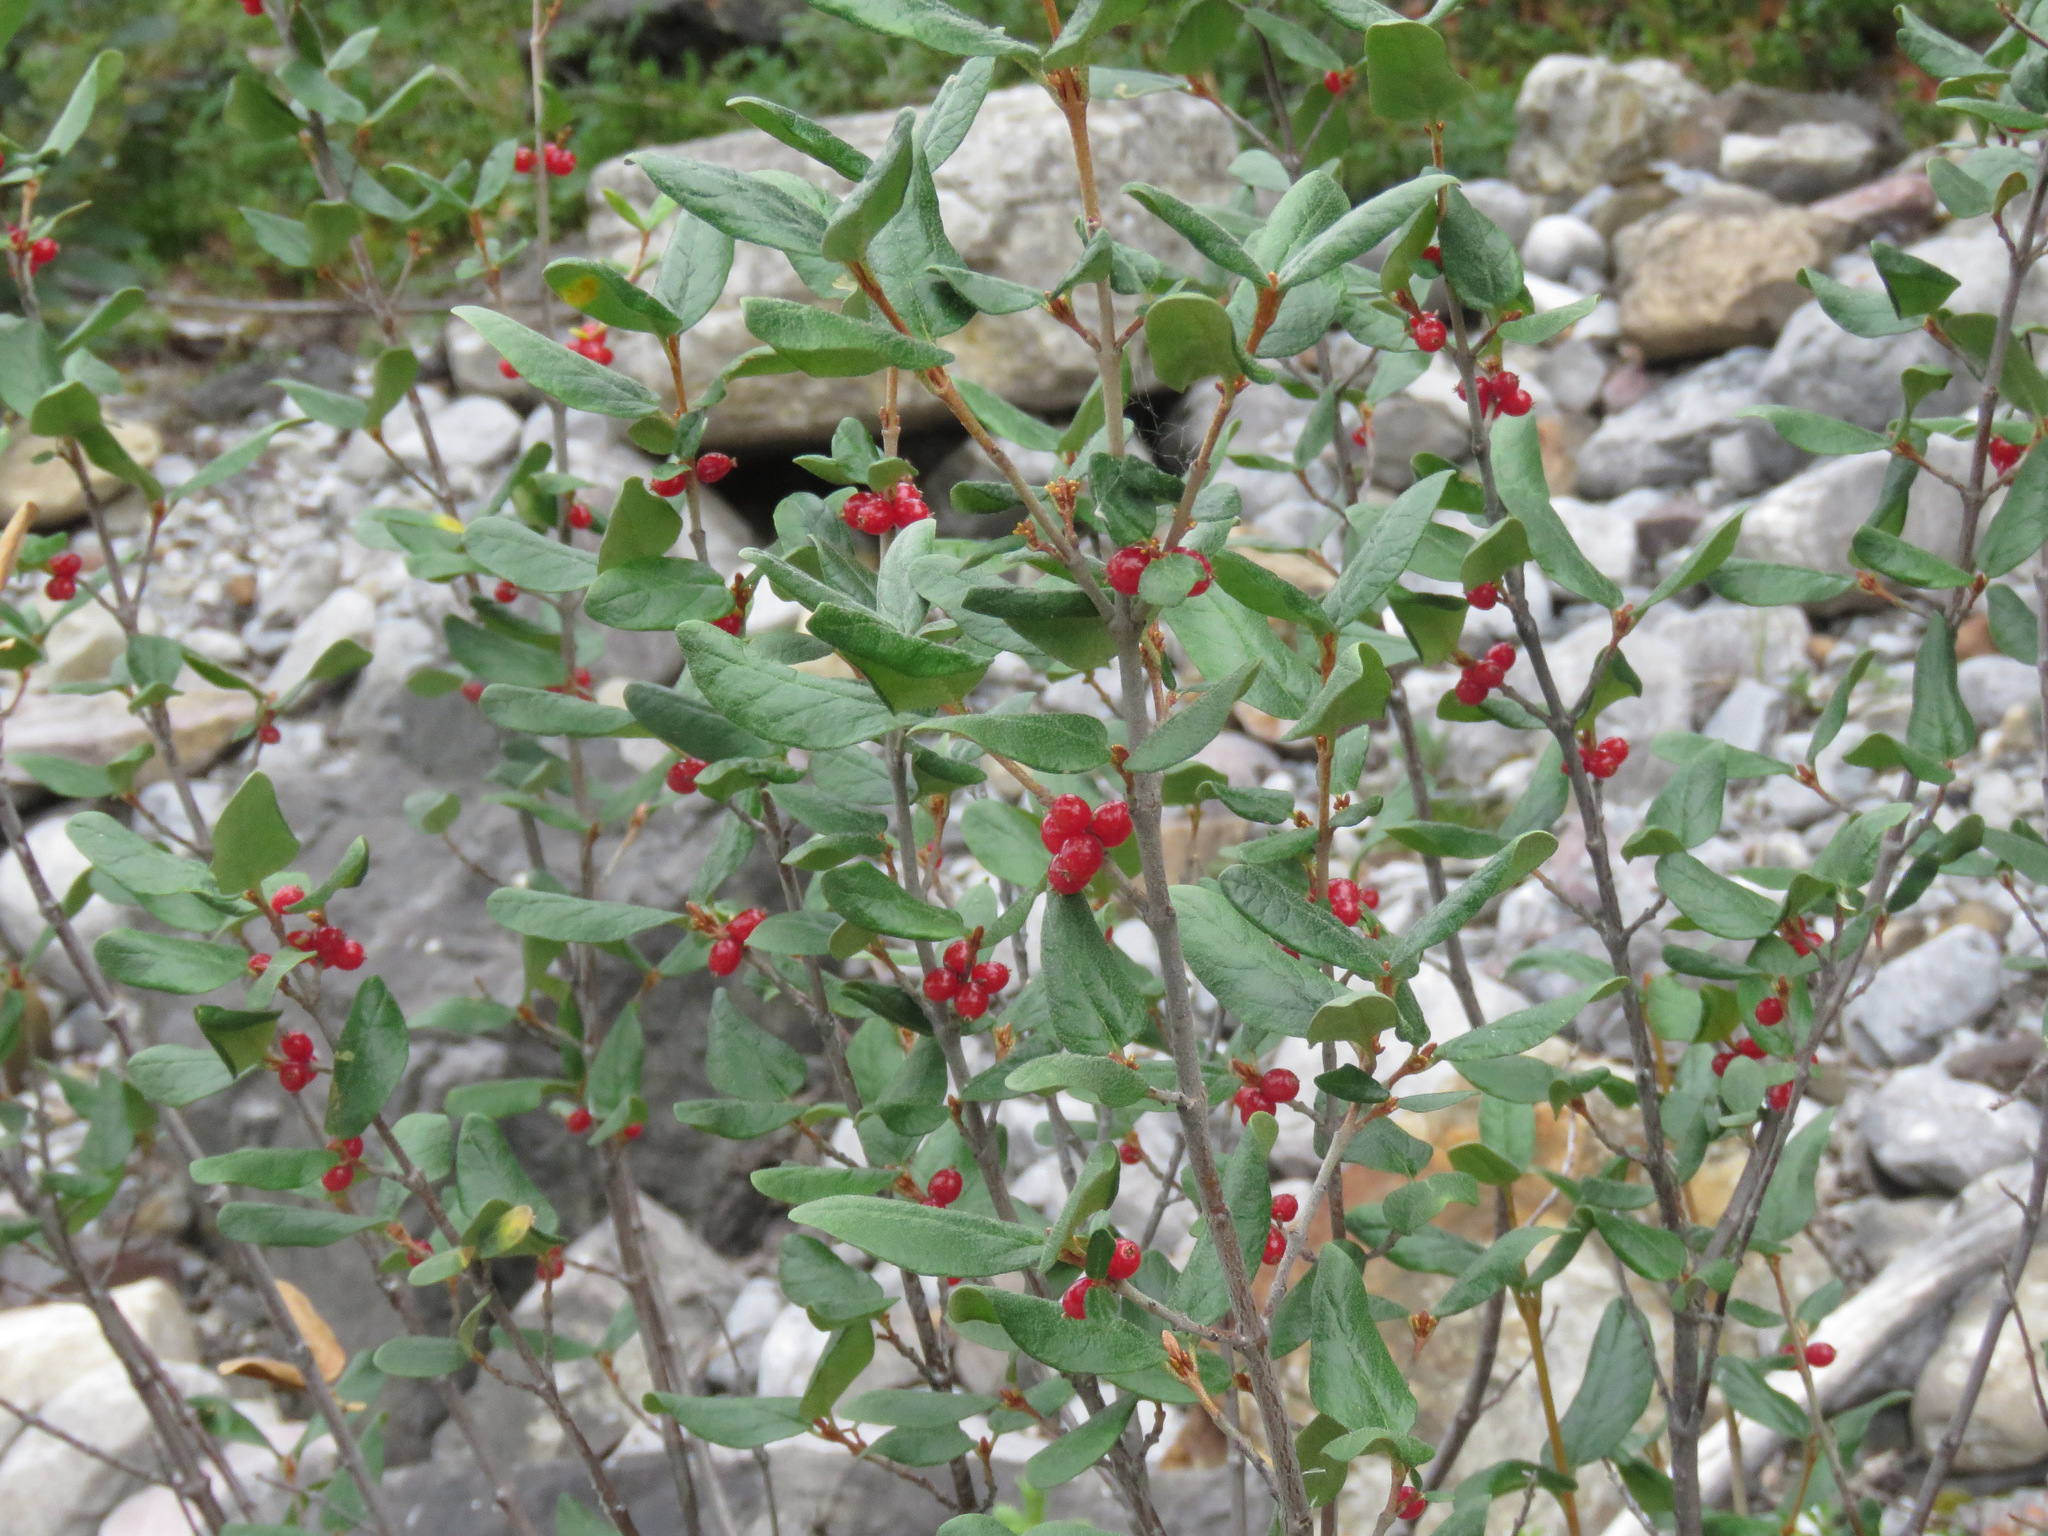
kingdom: Plantae
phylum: Tracheophyta
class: Magnoliopsida
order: Rosales
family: Elaeagnaceae
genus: Shepherdia
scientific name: Shepherdia canadensis
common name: Soapberry
